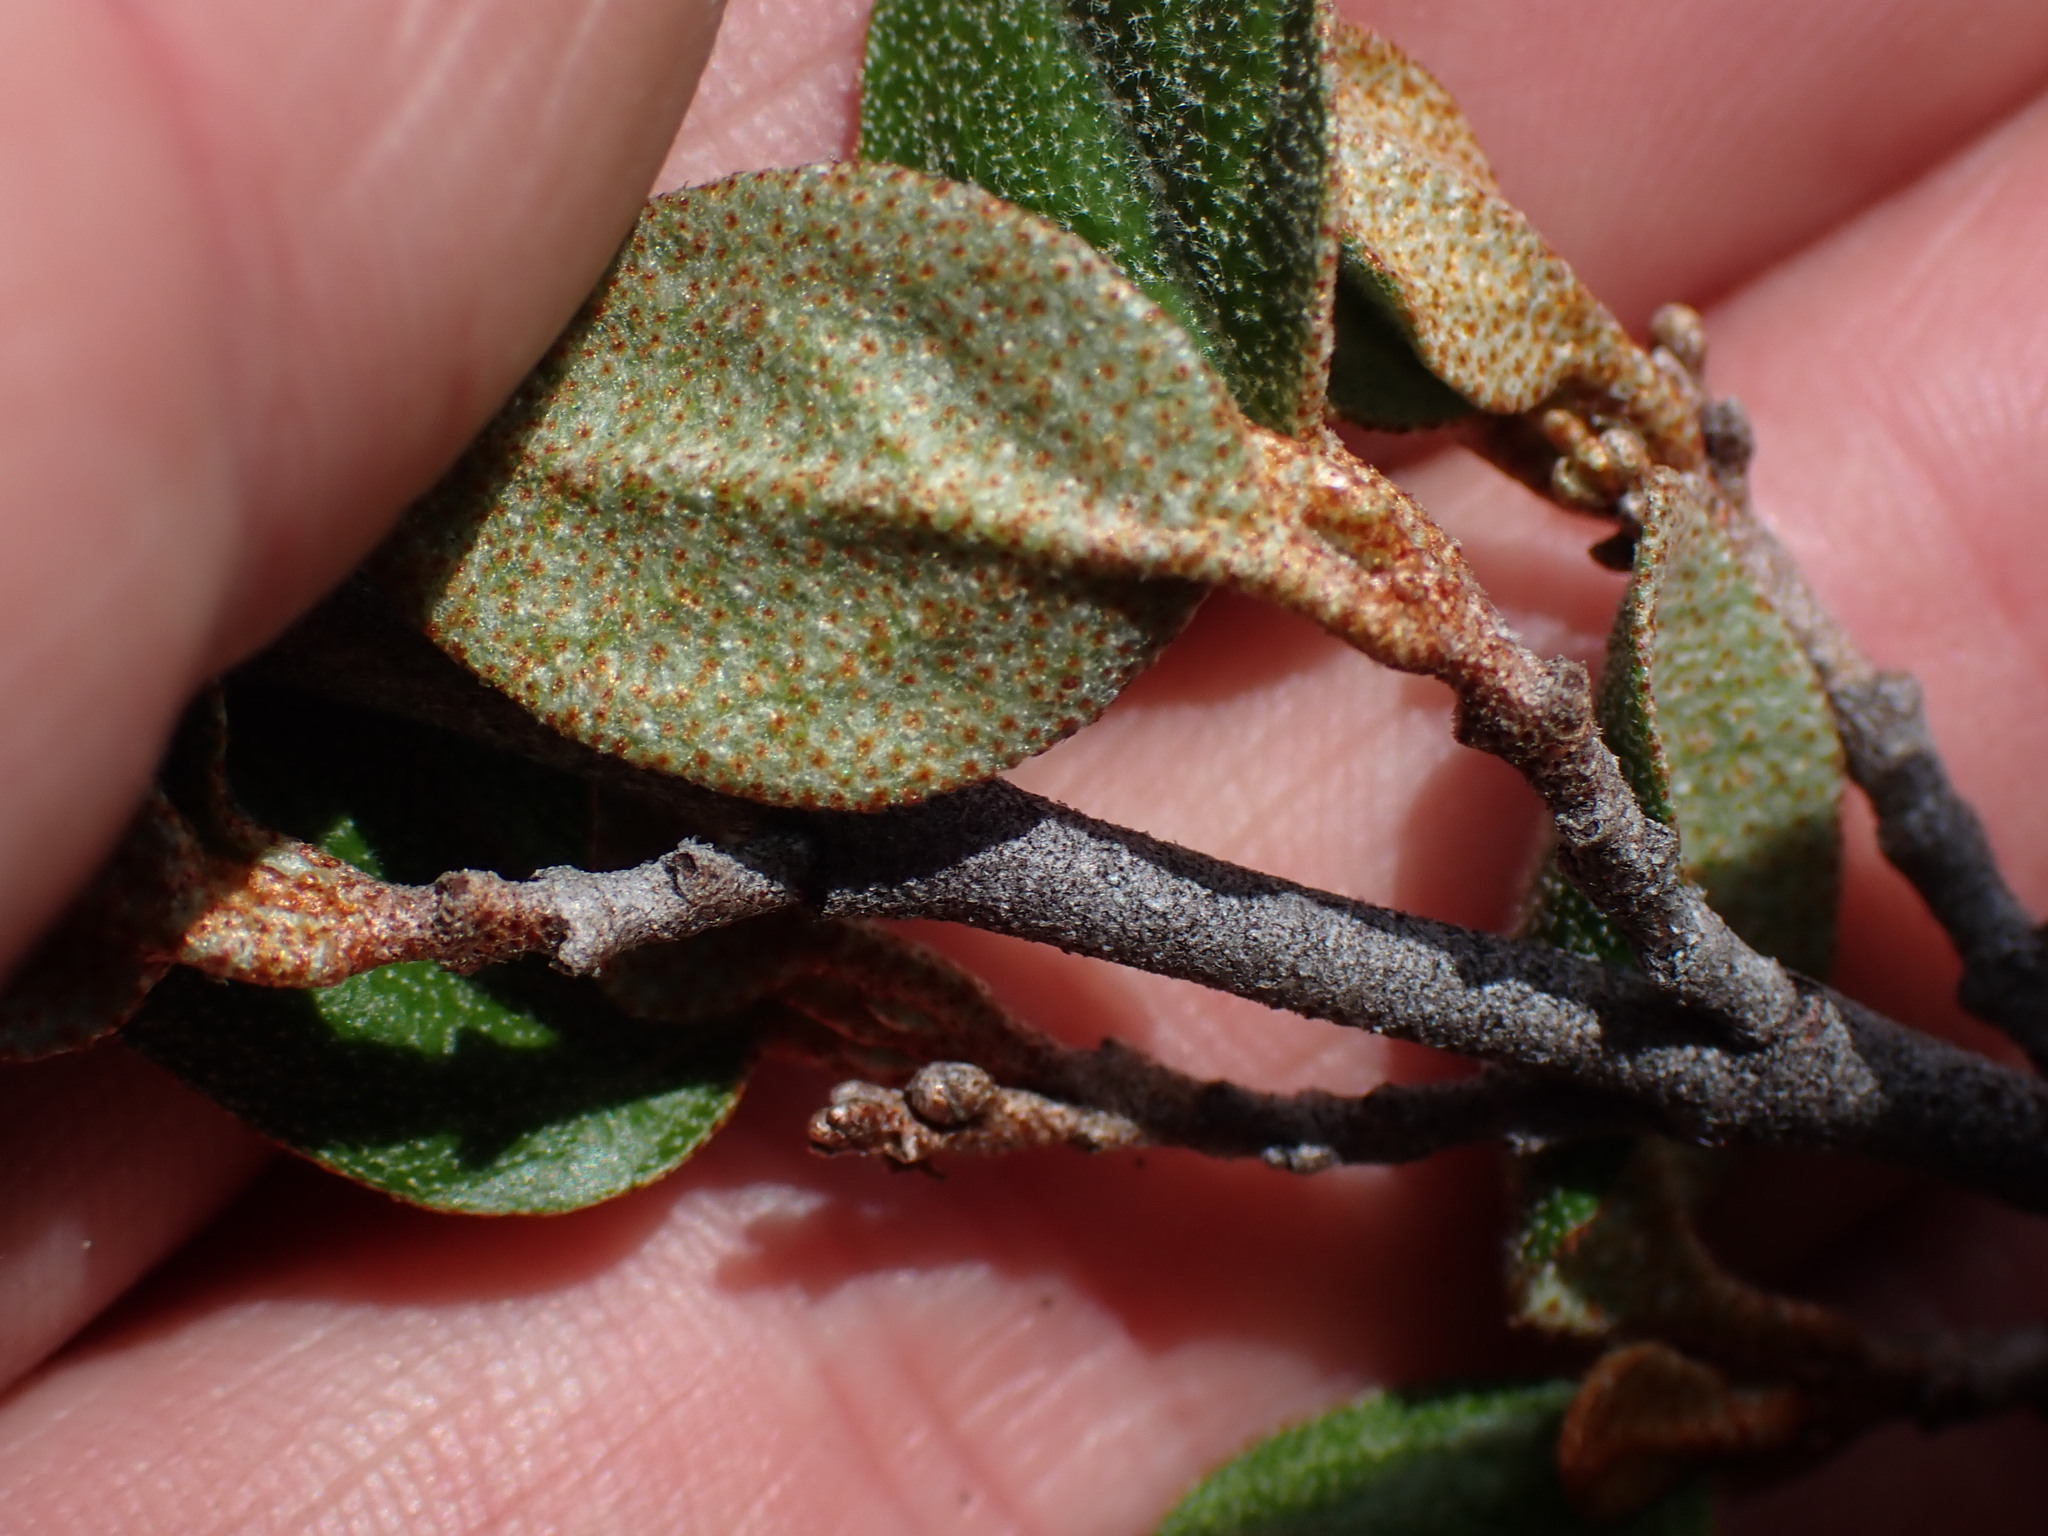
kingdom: Plantae
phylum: Tracheophyta
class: Magnoliopsida
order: Rosales
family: Elaeagnaceae
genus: Shepherdia
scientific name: Shepherdia canadensis
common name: Soapberry
